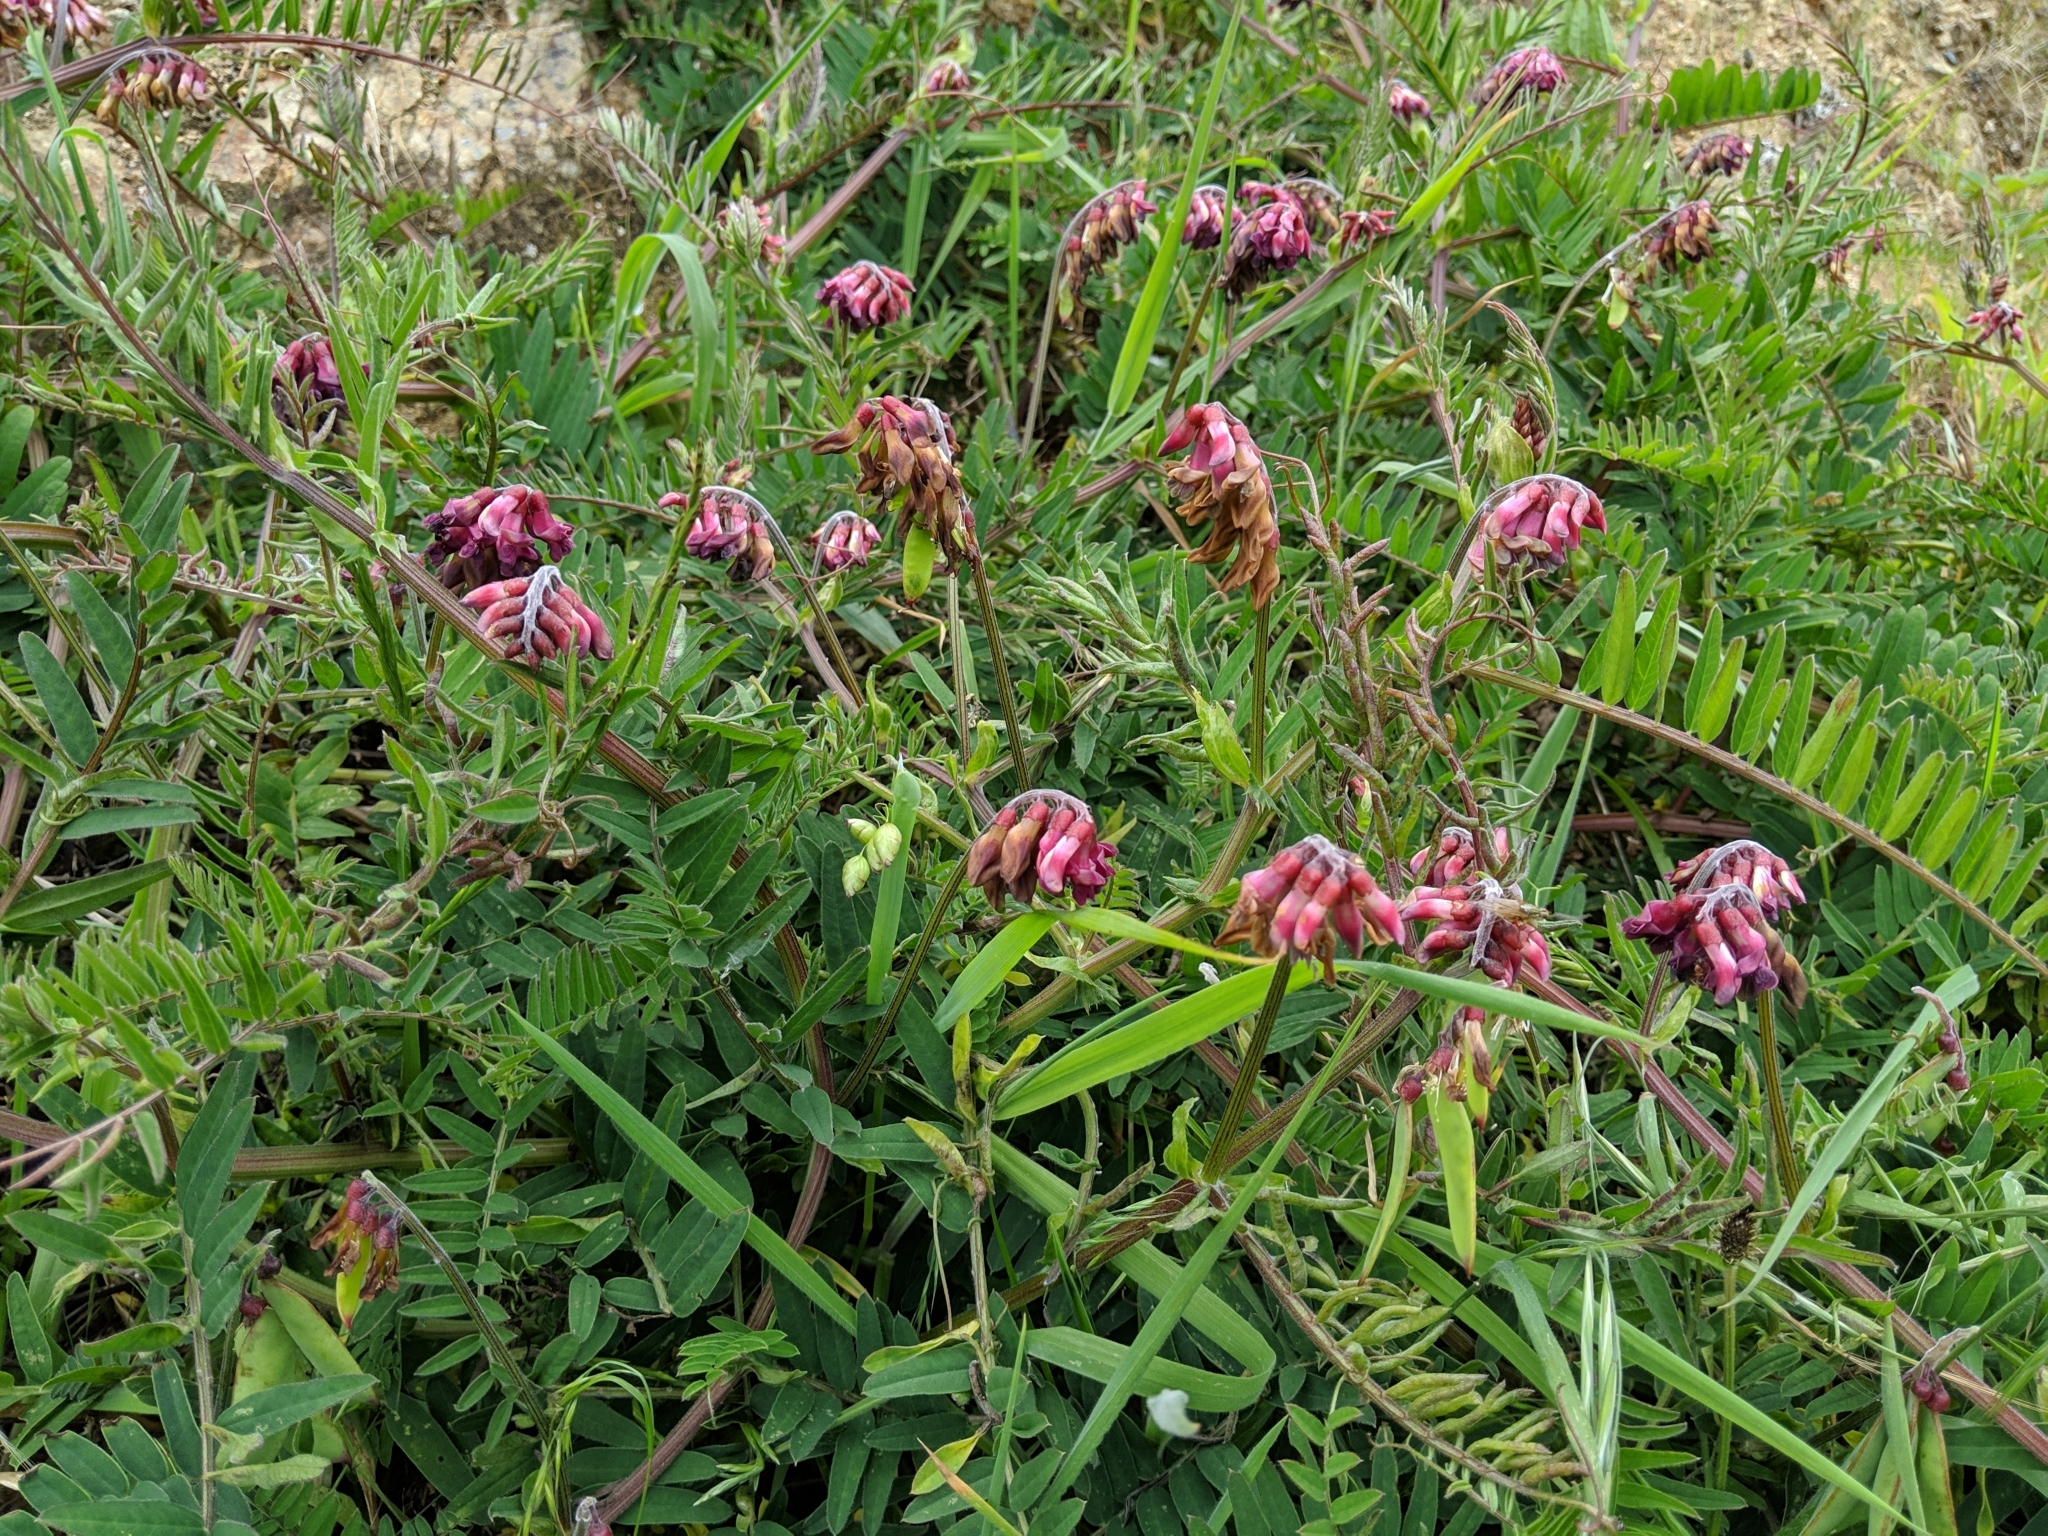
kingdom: Plantae
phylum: Tracheophyta
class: Magnoliopsida
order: Fabales
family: Fabaceae
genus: Vicia
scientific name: Vicia
